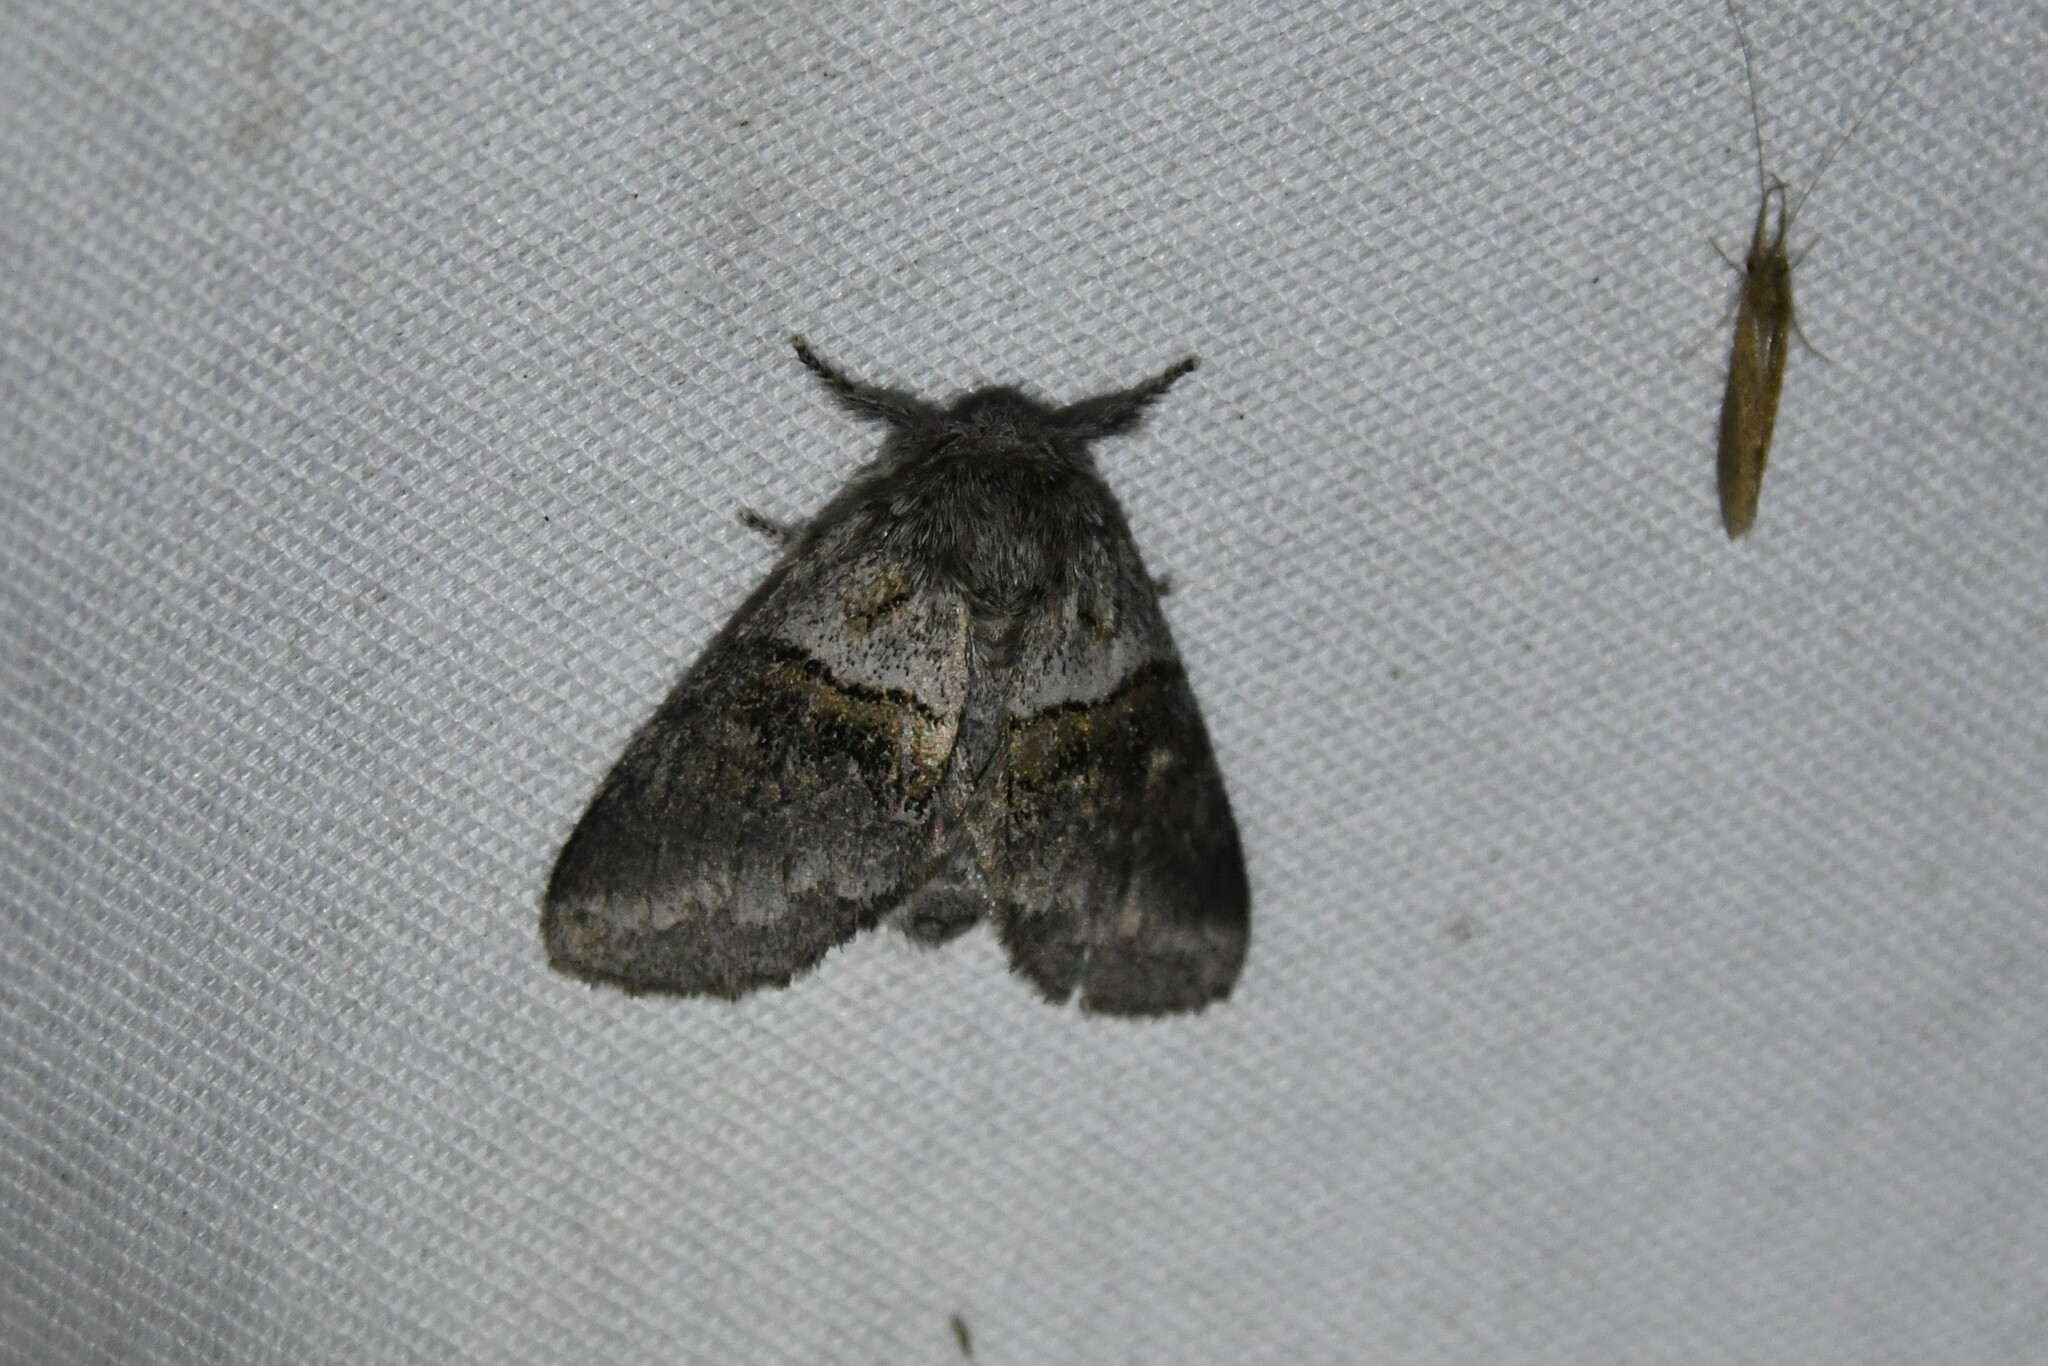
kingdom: Animalia
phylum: Arthropoda
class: Insecta
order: Lepidoptera
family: Notodontidae
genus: Gluphisia
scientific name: Gluphisia septentrionis
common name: Common gluphisia
